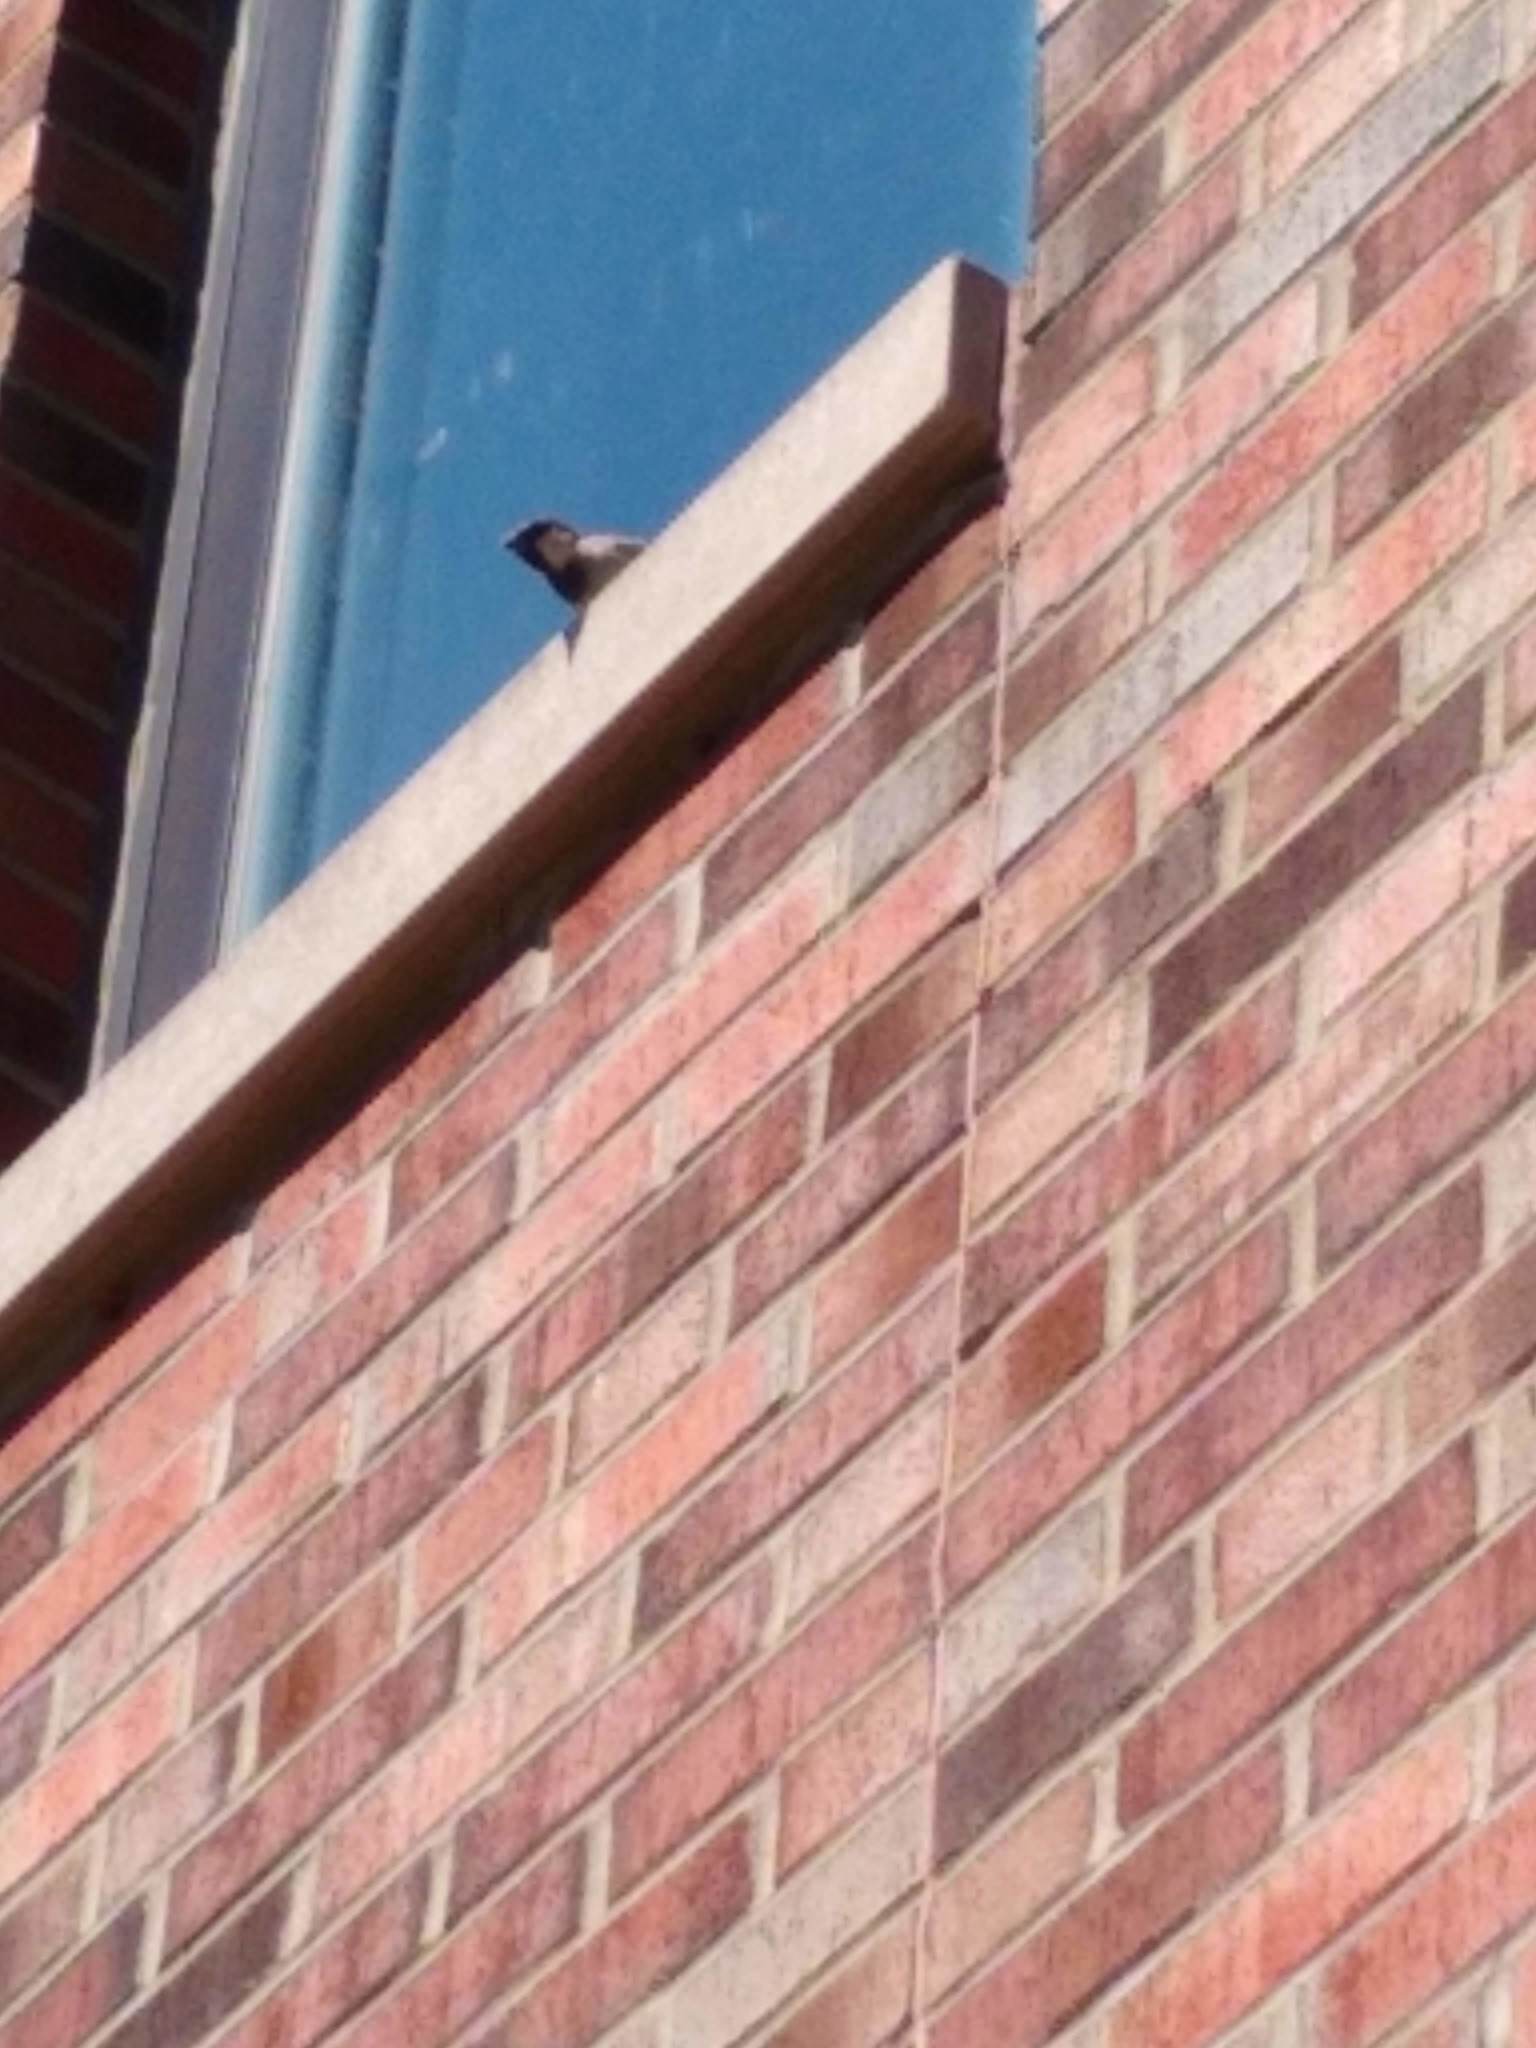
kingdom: Animalia
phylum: Chordata
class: Aves
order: Passeriformes
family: Passeridae
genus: Passer
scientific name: Passer domesticus
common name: House sparrow
